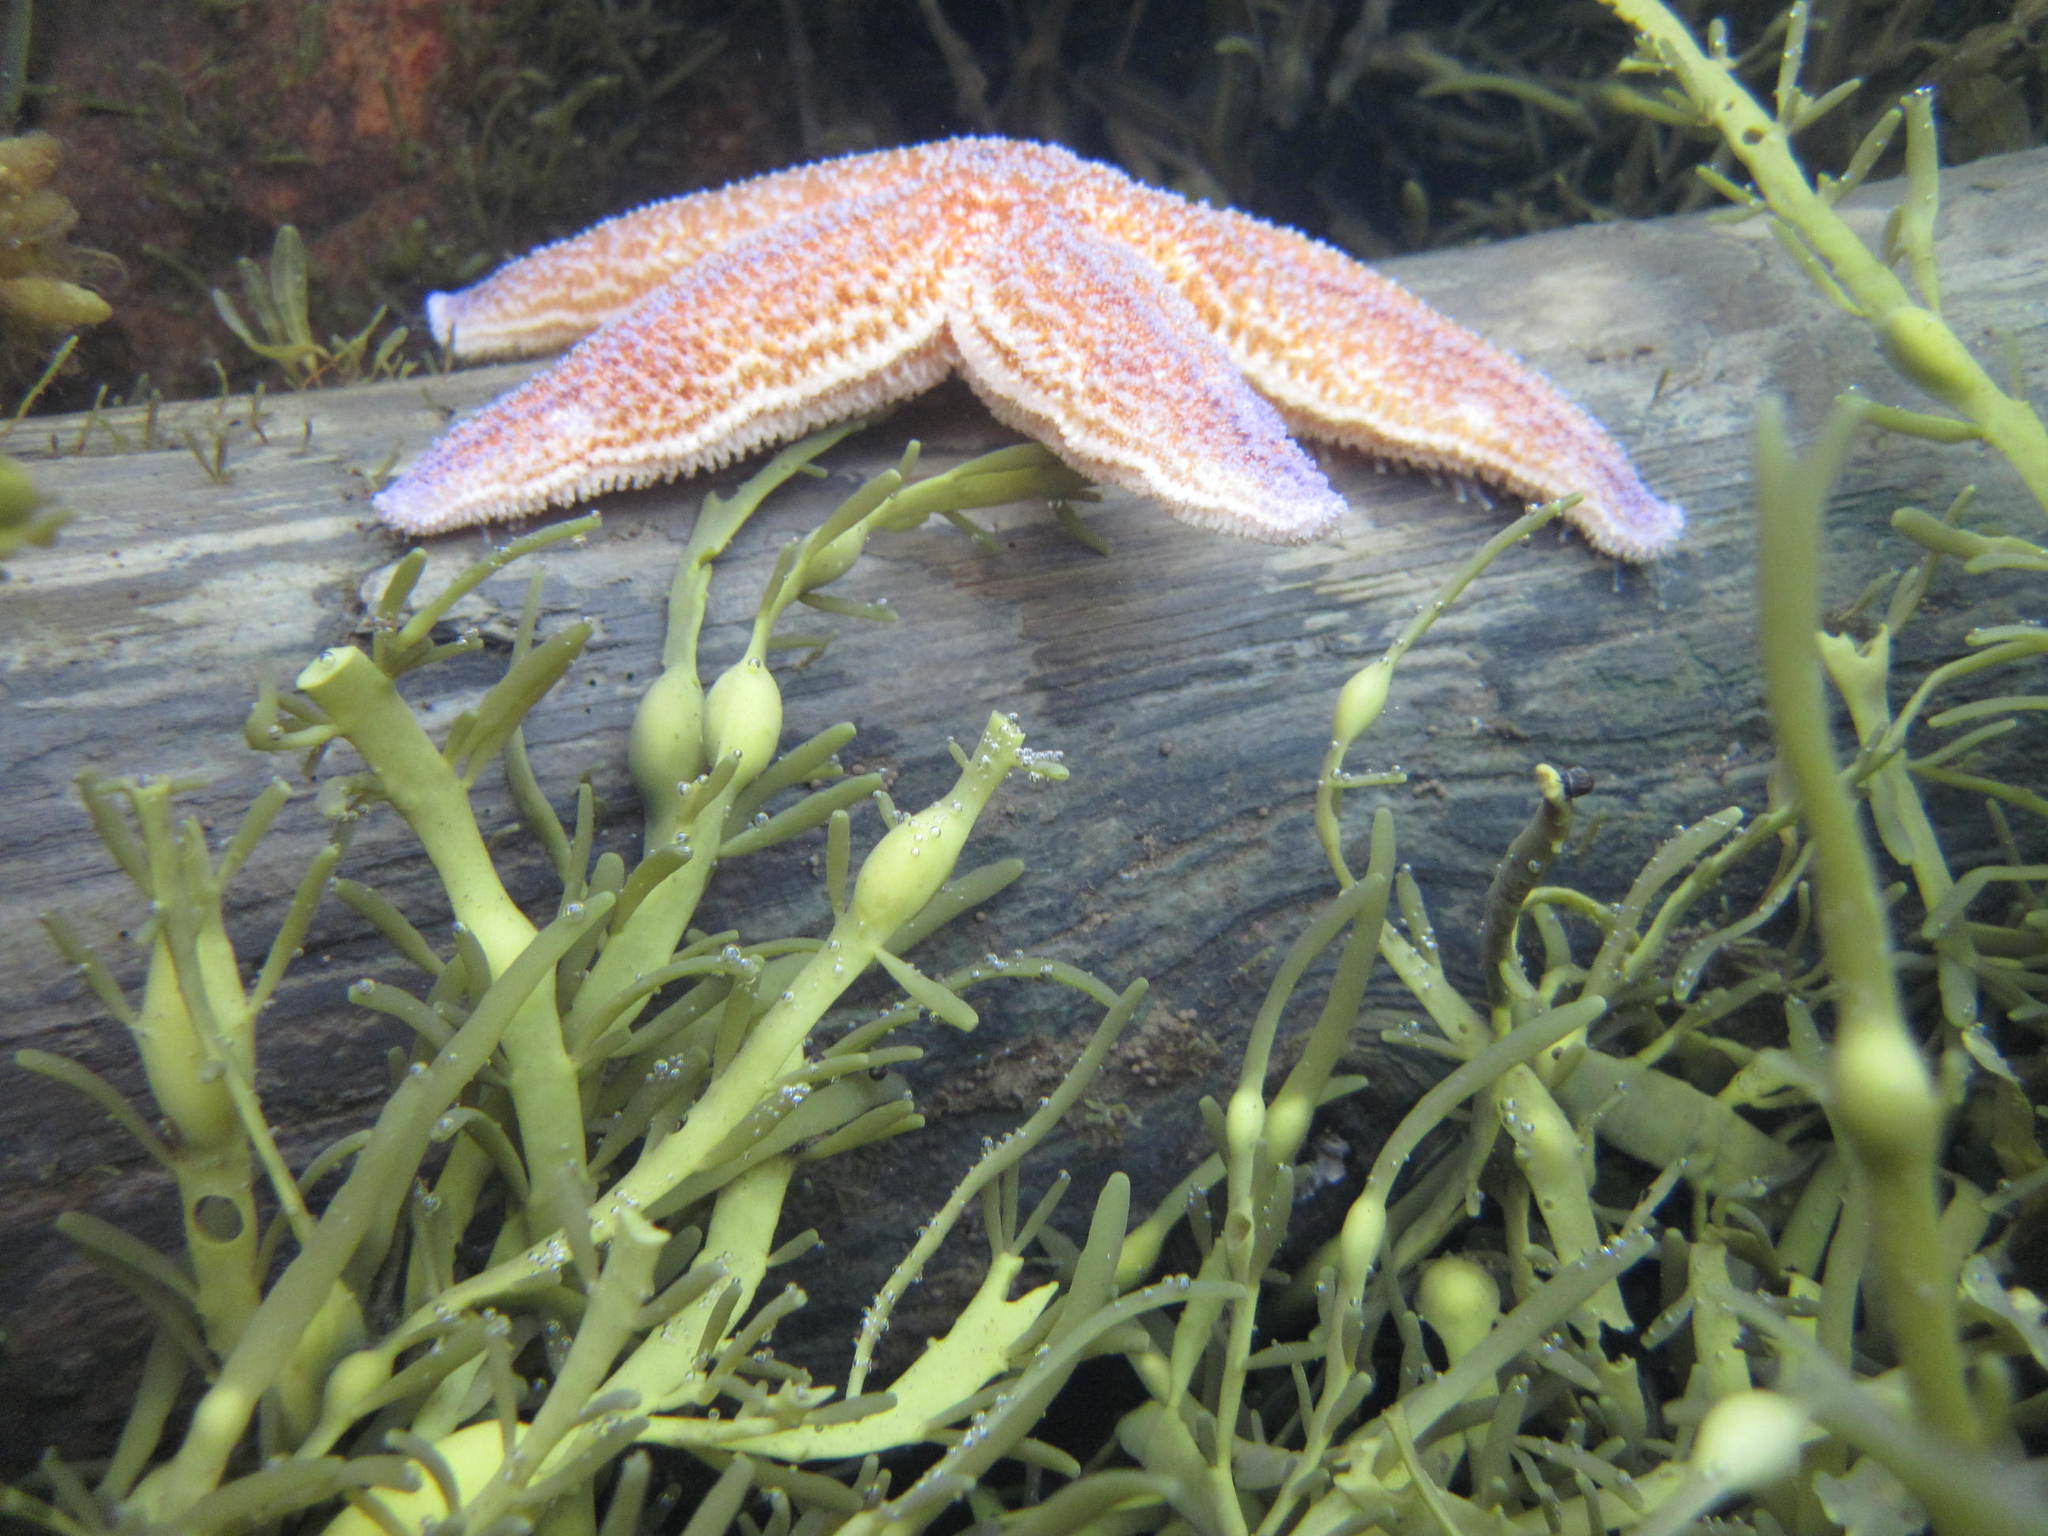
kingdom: Chromista
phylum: Ochrophyta
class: Phaeophyceae
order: Fucales
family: Fucaceae
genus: Ascophyllum
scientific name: Ascophyllum nodosum
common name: Knotted wrack
